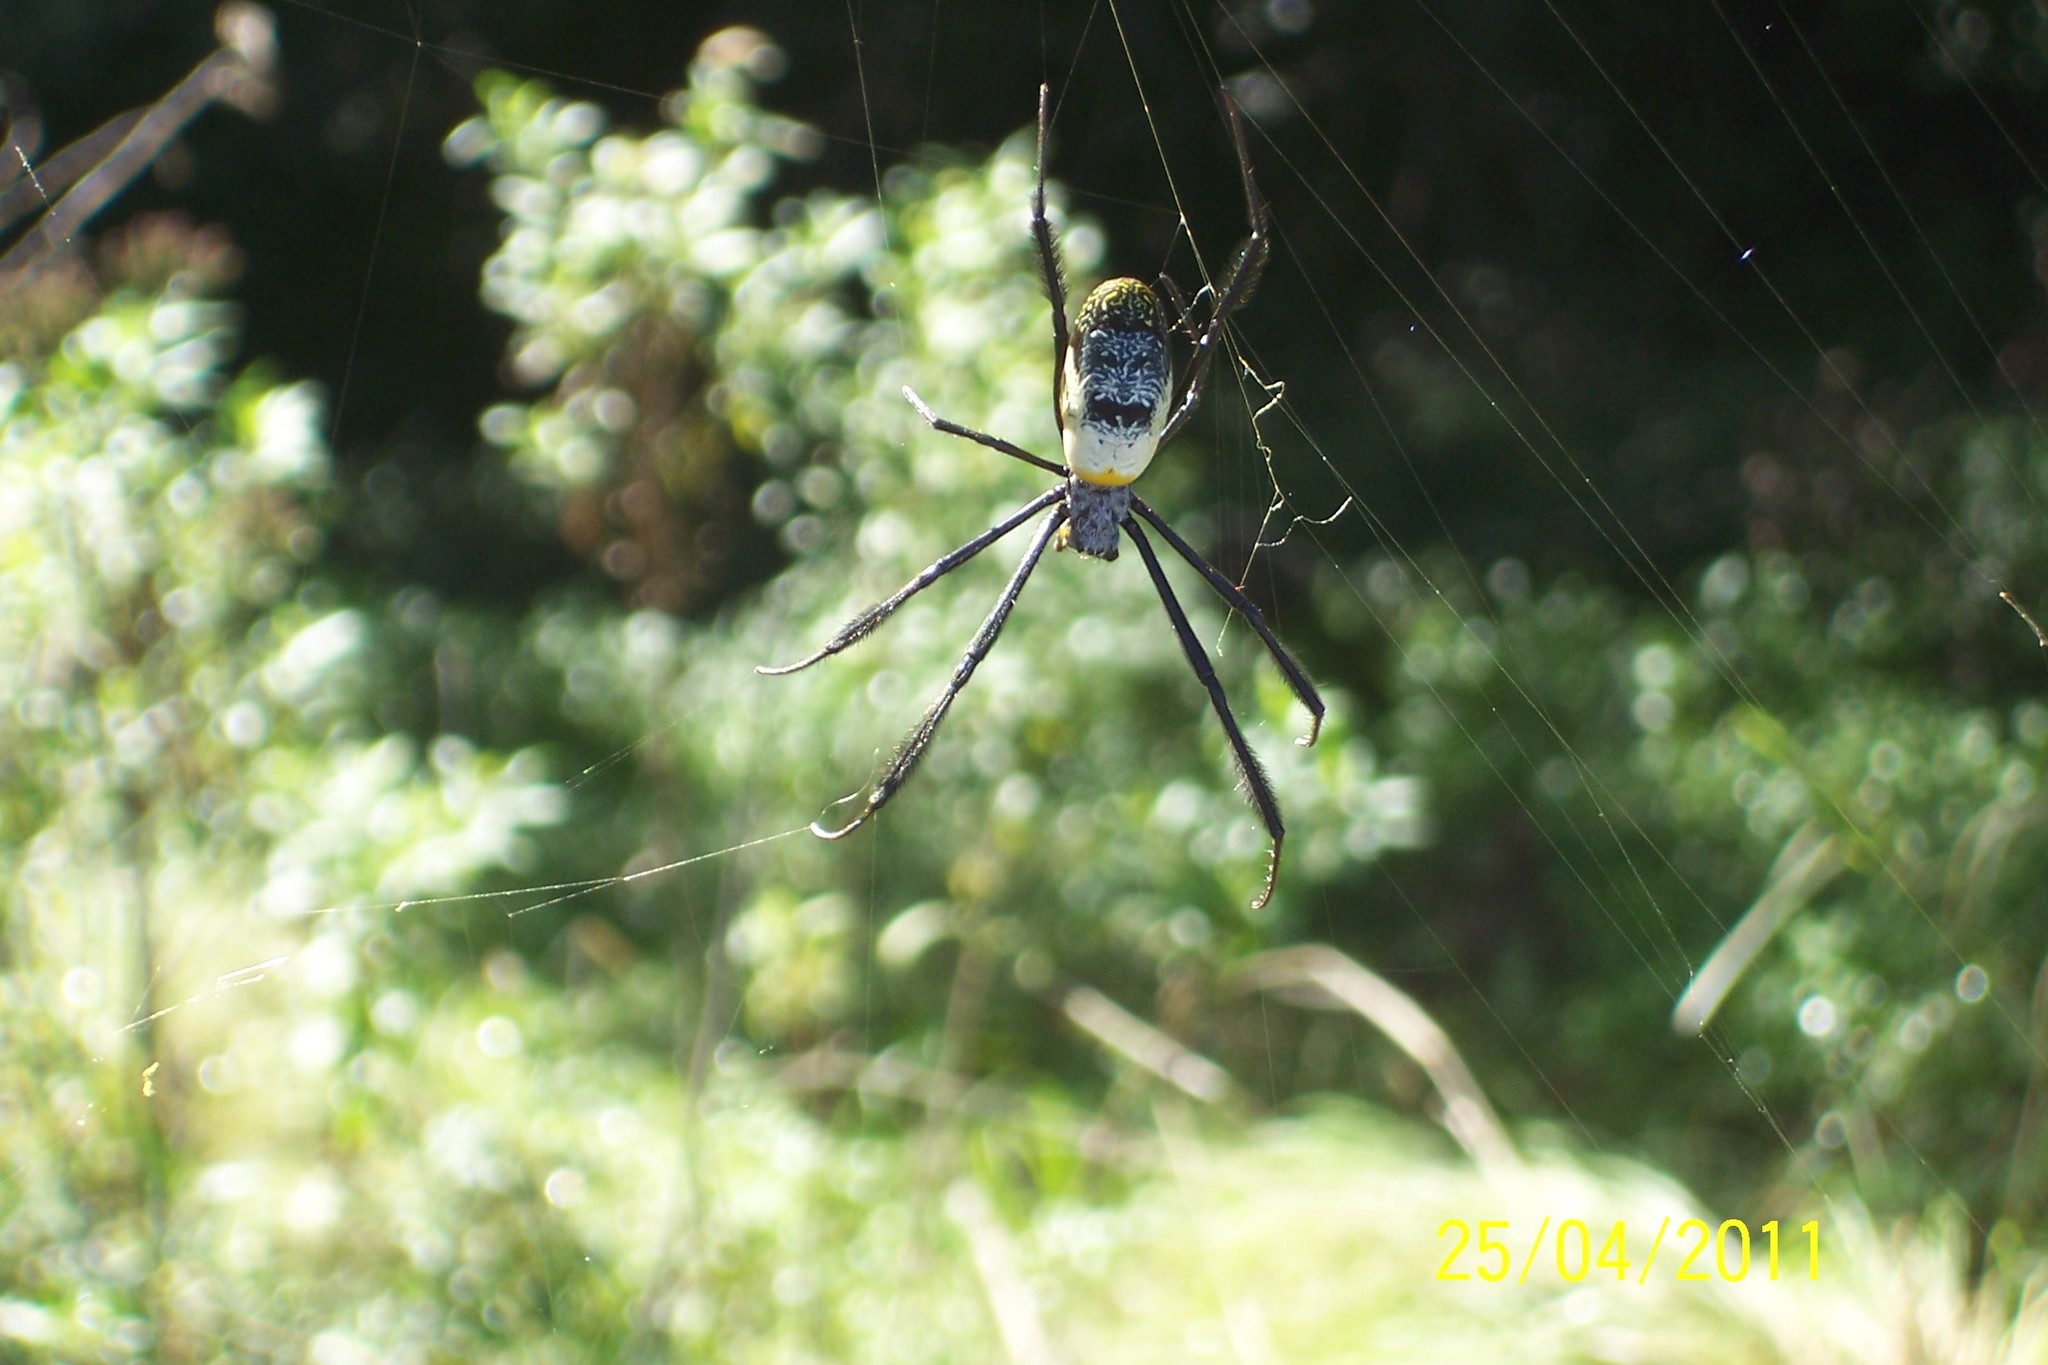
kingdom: Animalia
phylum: Arthropoda
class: Arachnida
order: Araneae
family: Araneidae
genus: Trichonephila
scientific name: Trichonephila fenestrata
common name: Hairy golden orb weaver
